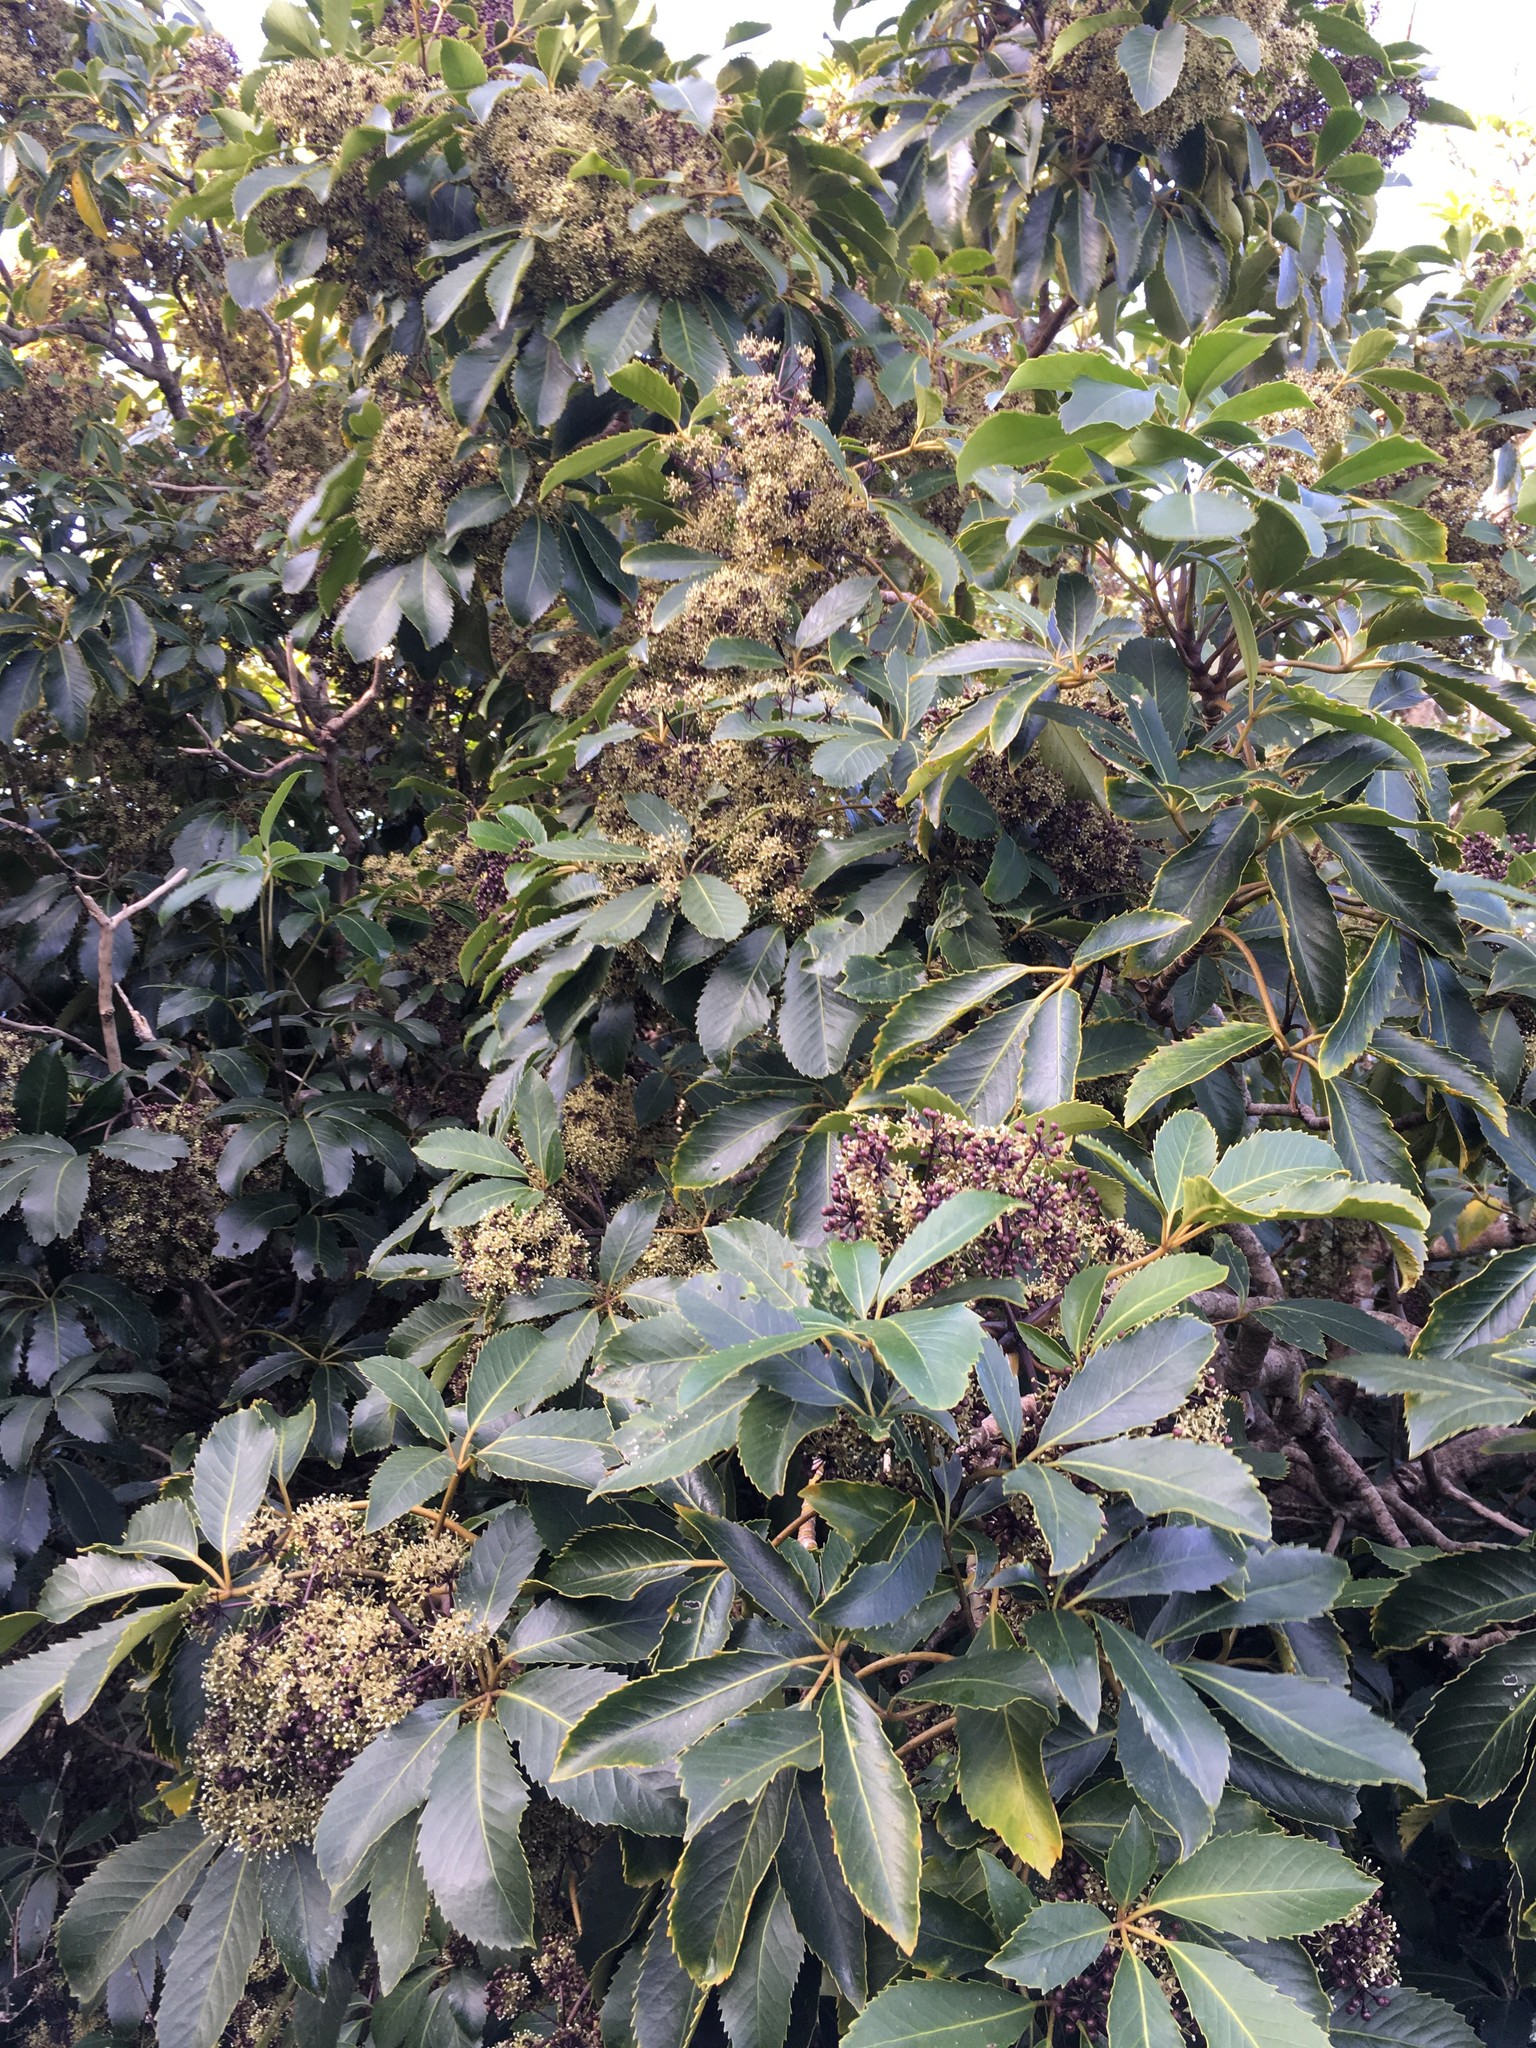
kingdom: Plantae
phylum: Tracheophyta
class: Magnoliopsida
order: Apiales
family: Araliaceae
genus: Neopanax
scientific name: Neopanax arboreus
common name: Five-fingers
